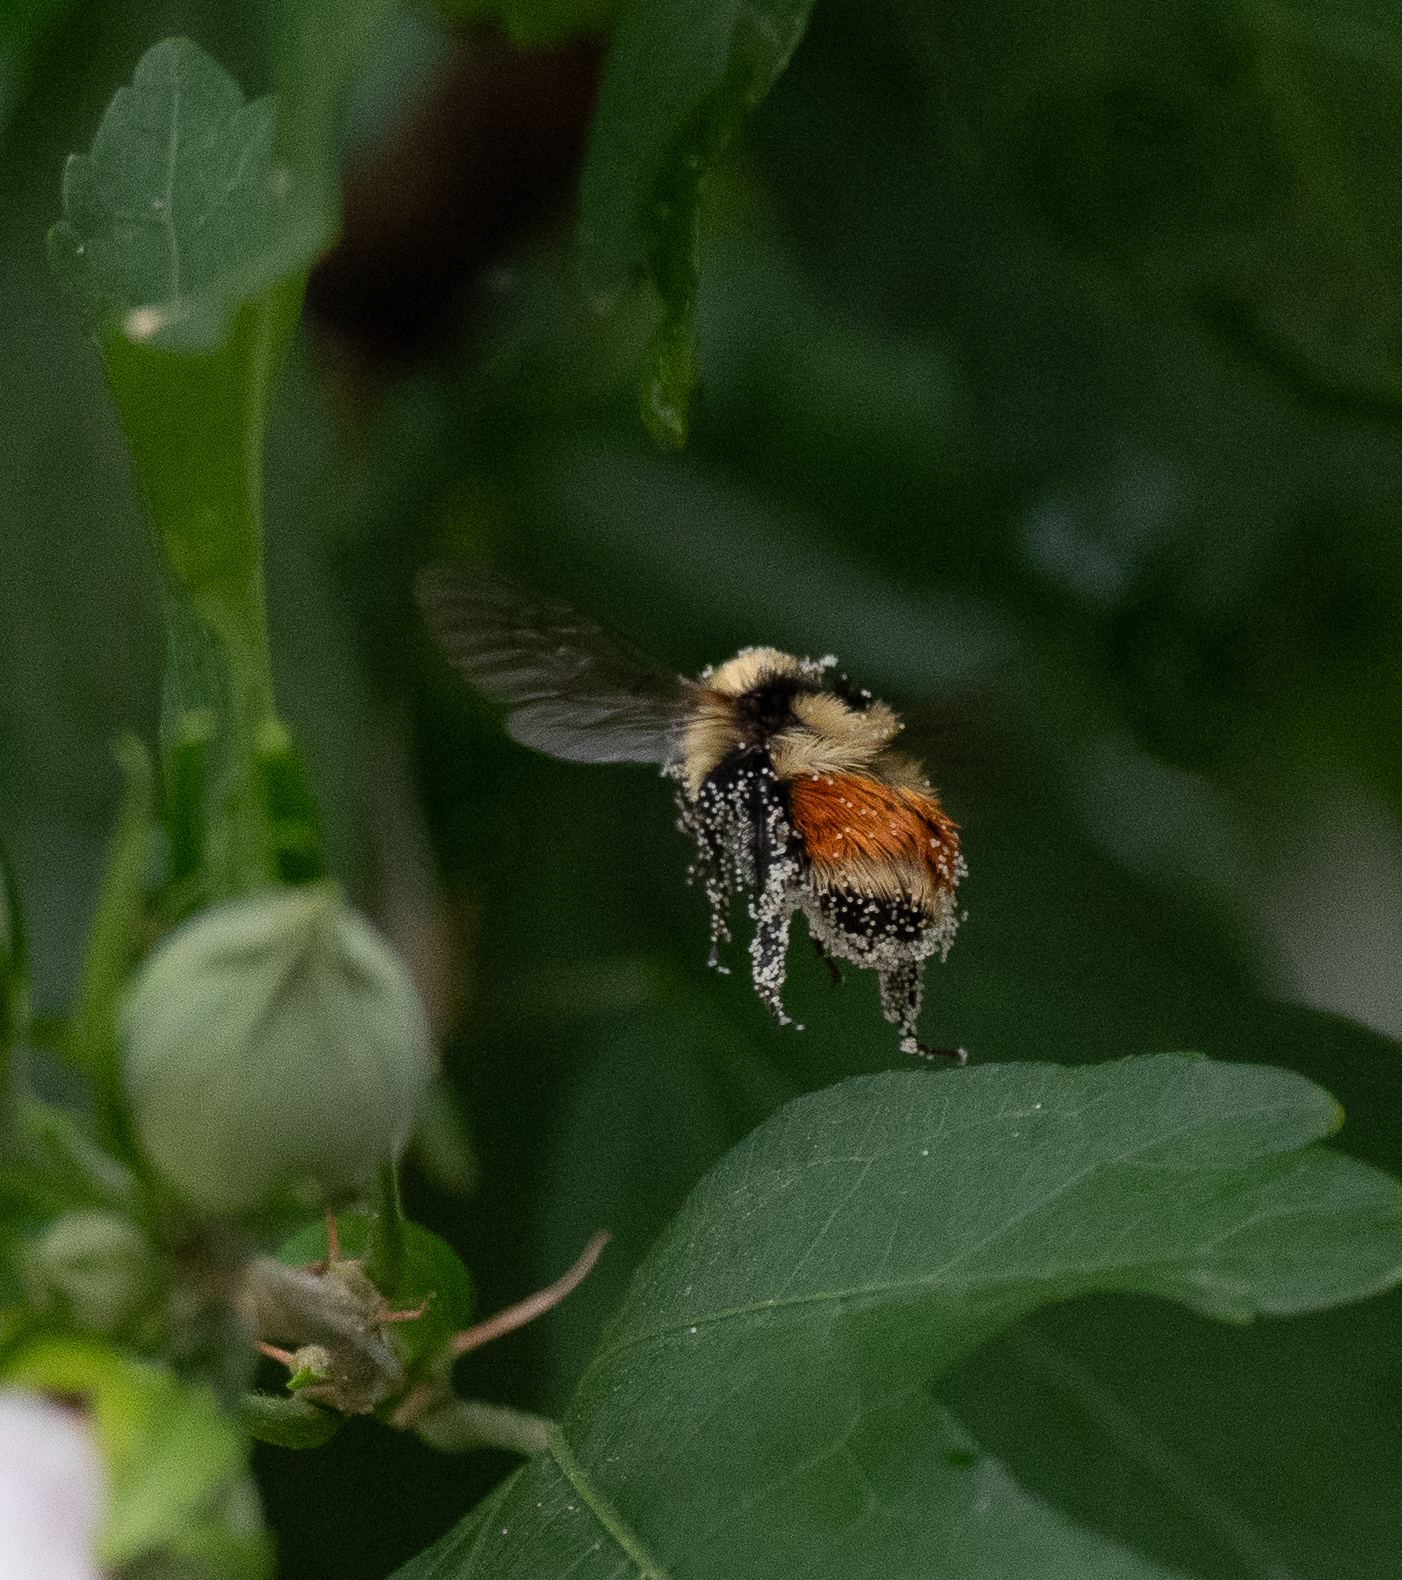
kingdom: Animalia
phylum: Arthropoda
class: Insecta
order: Hymenoptera
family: Apidae
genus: Bombus
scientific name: Bombus huntii
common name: Hunt bumble bee
